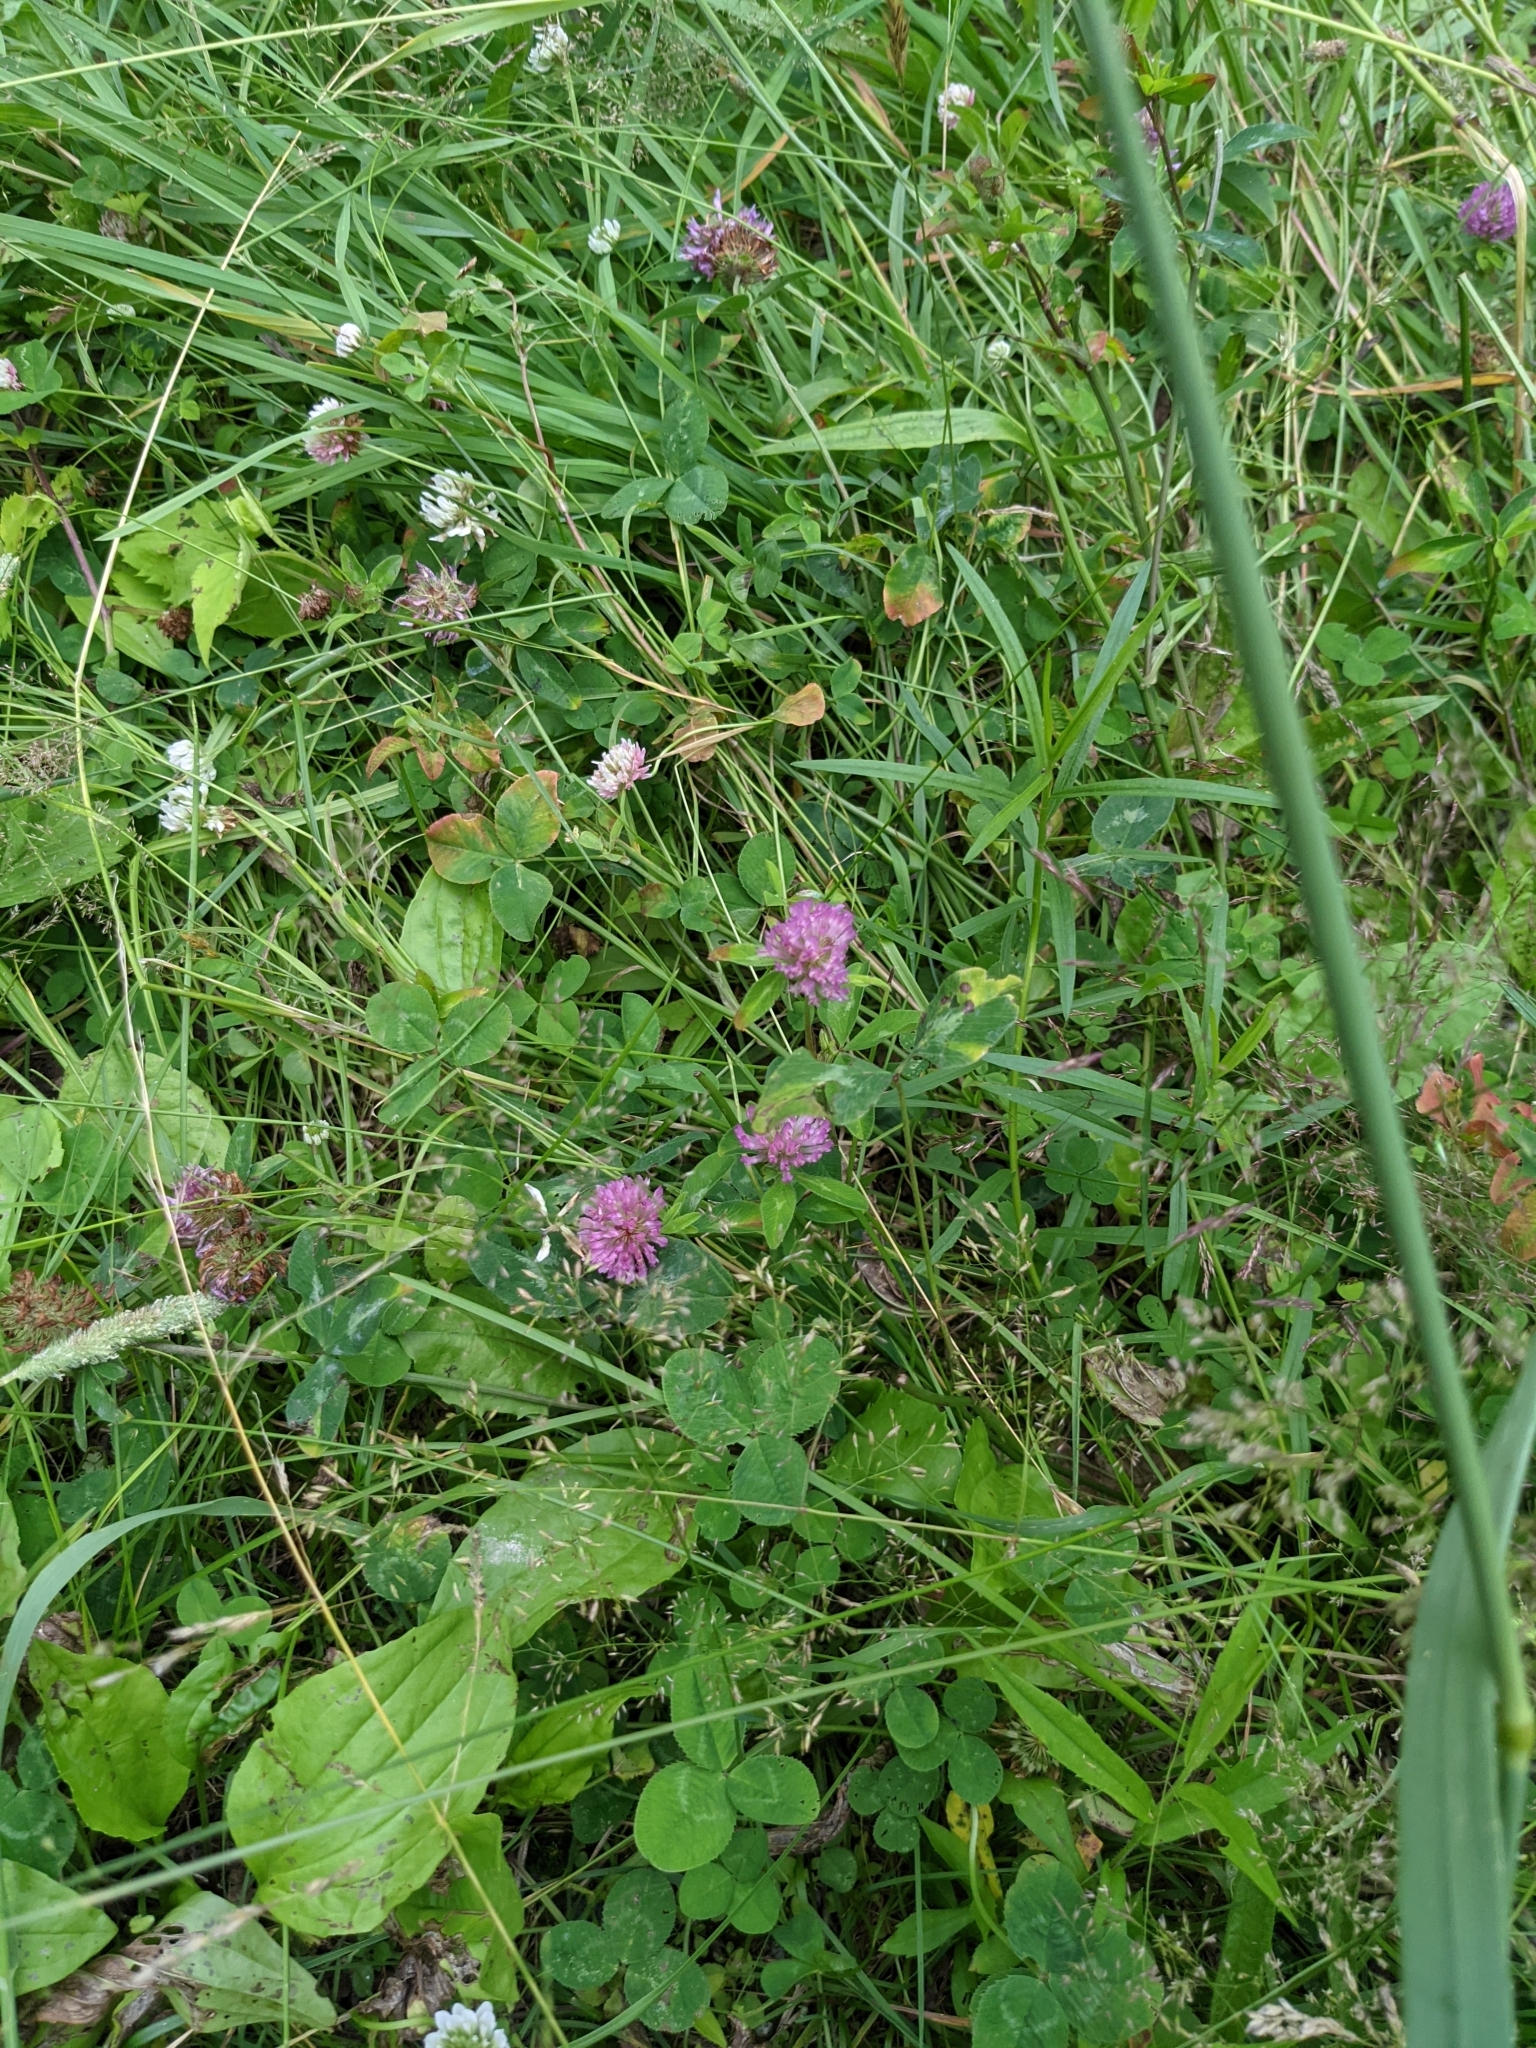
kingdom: Plantae
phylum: Tracheophyta
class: Magnoliopsida
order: Fabales
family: Fabaceae
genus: Trifolium
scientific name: Trifolium pratense
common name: Red clover
